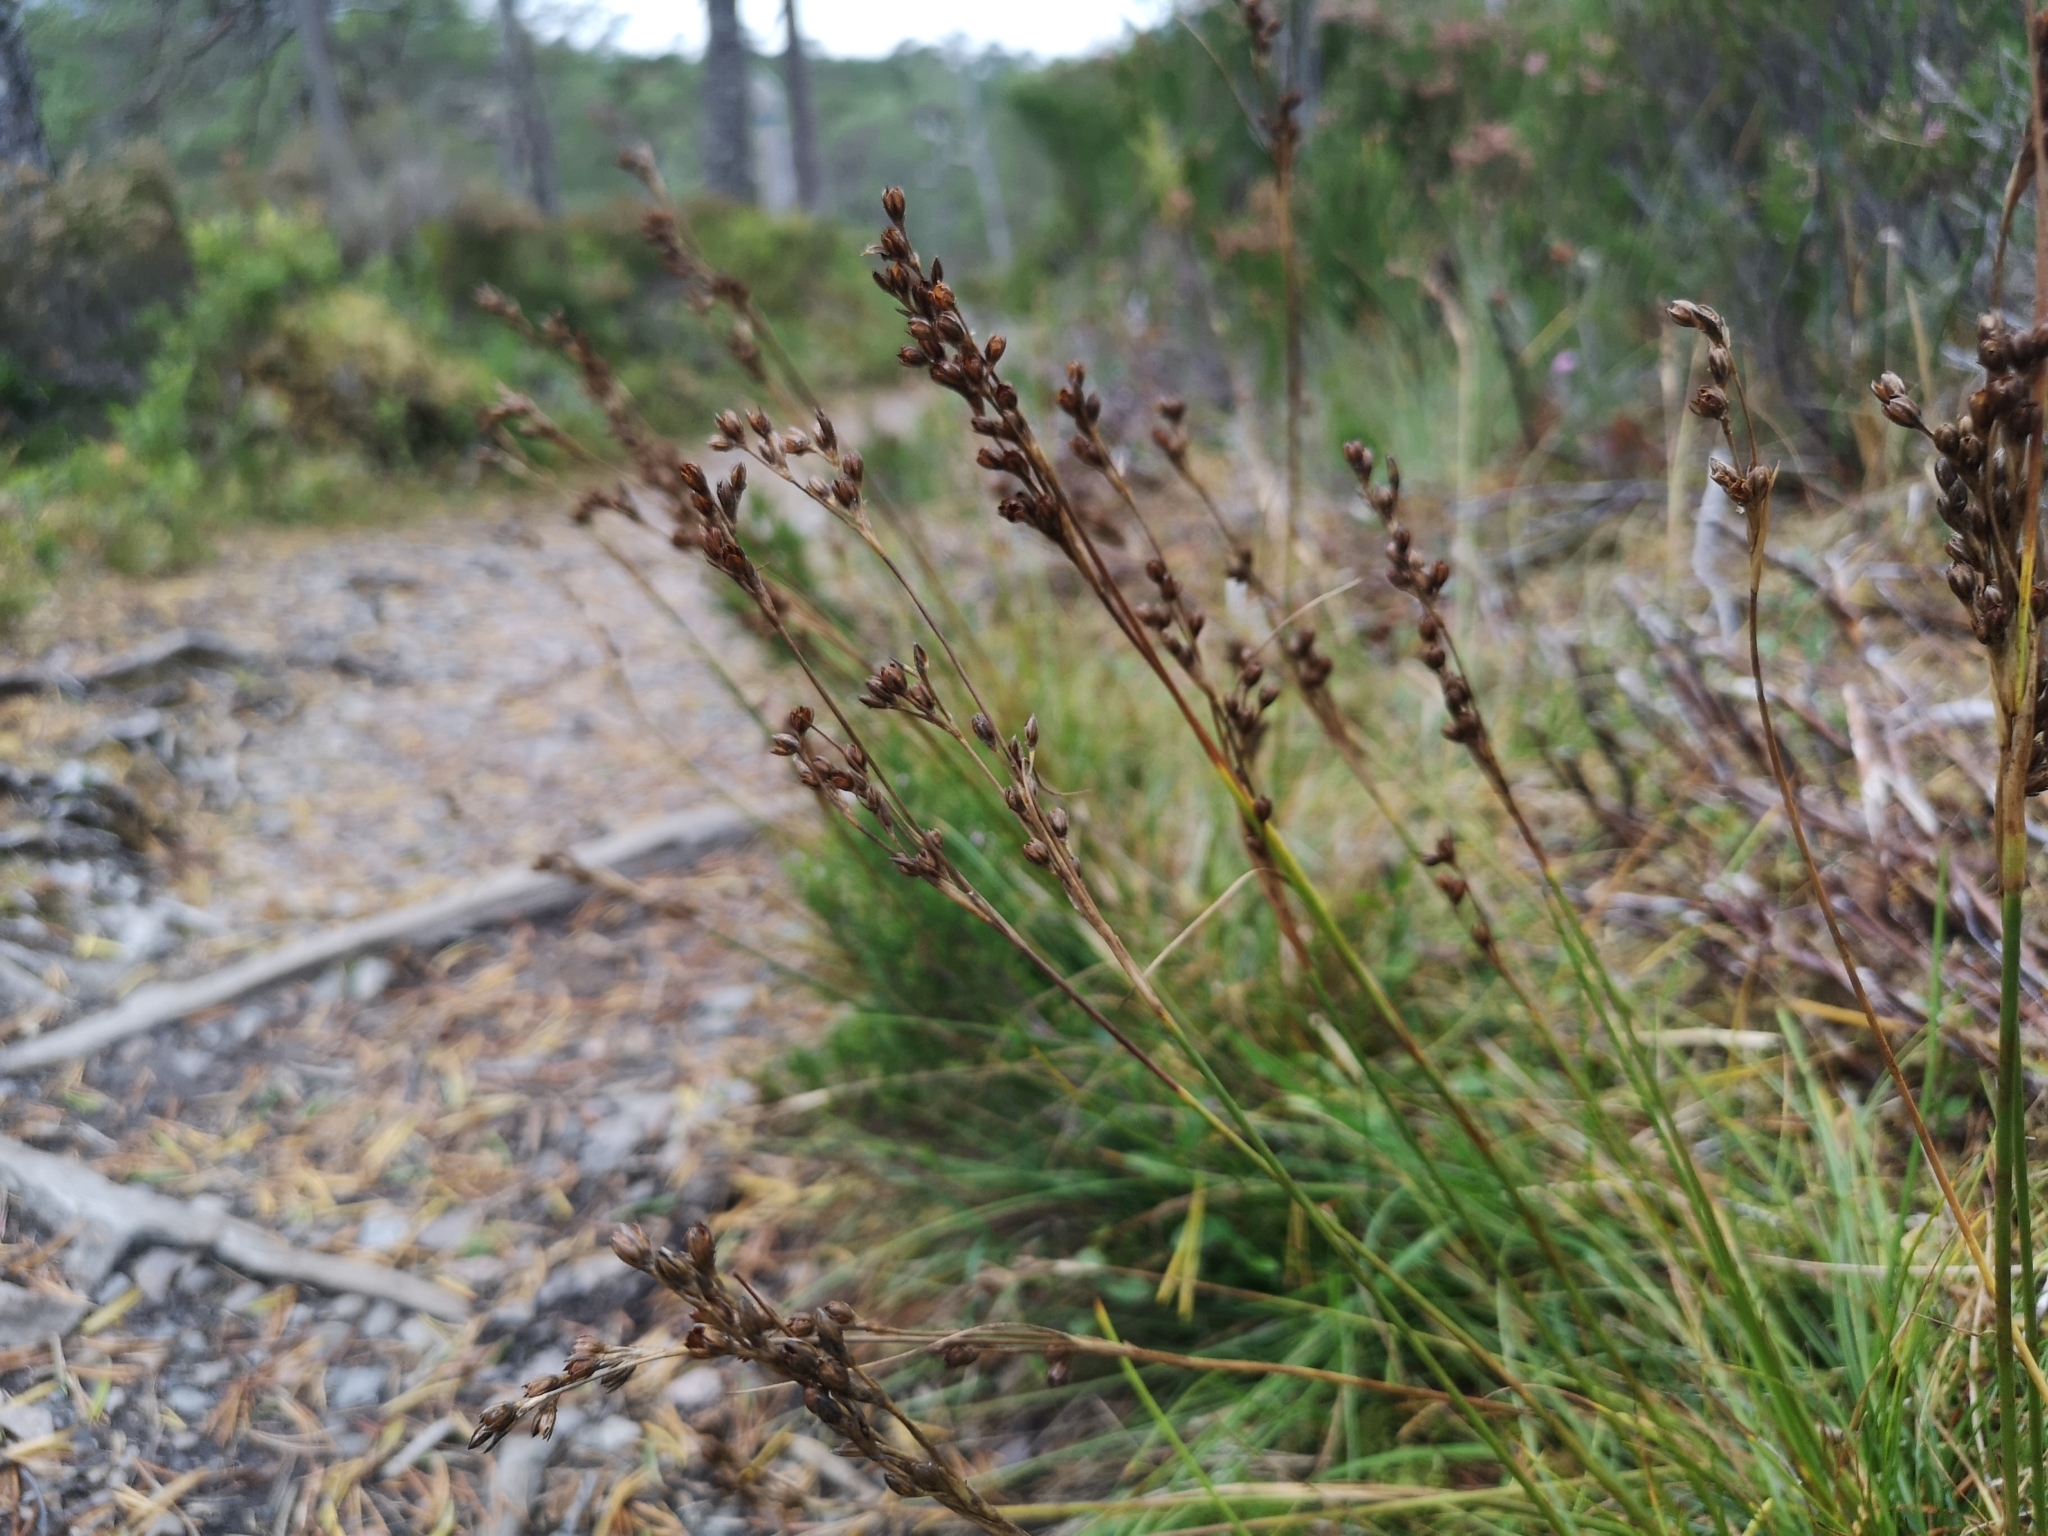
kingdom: Plantae
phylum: Tracheophyta
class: Liliopsida
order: Poales
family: Juncaceae
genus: Juncus
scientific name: Juncus squarrosus
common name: Heath rush
